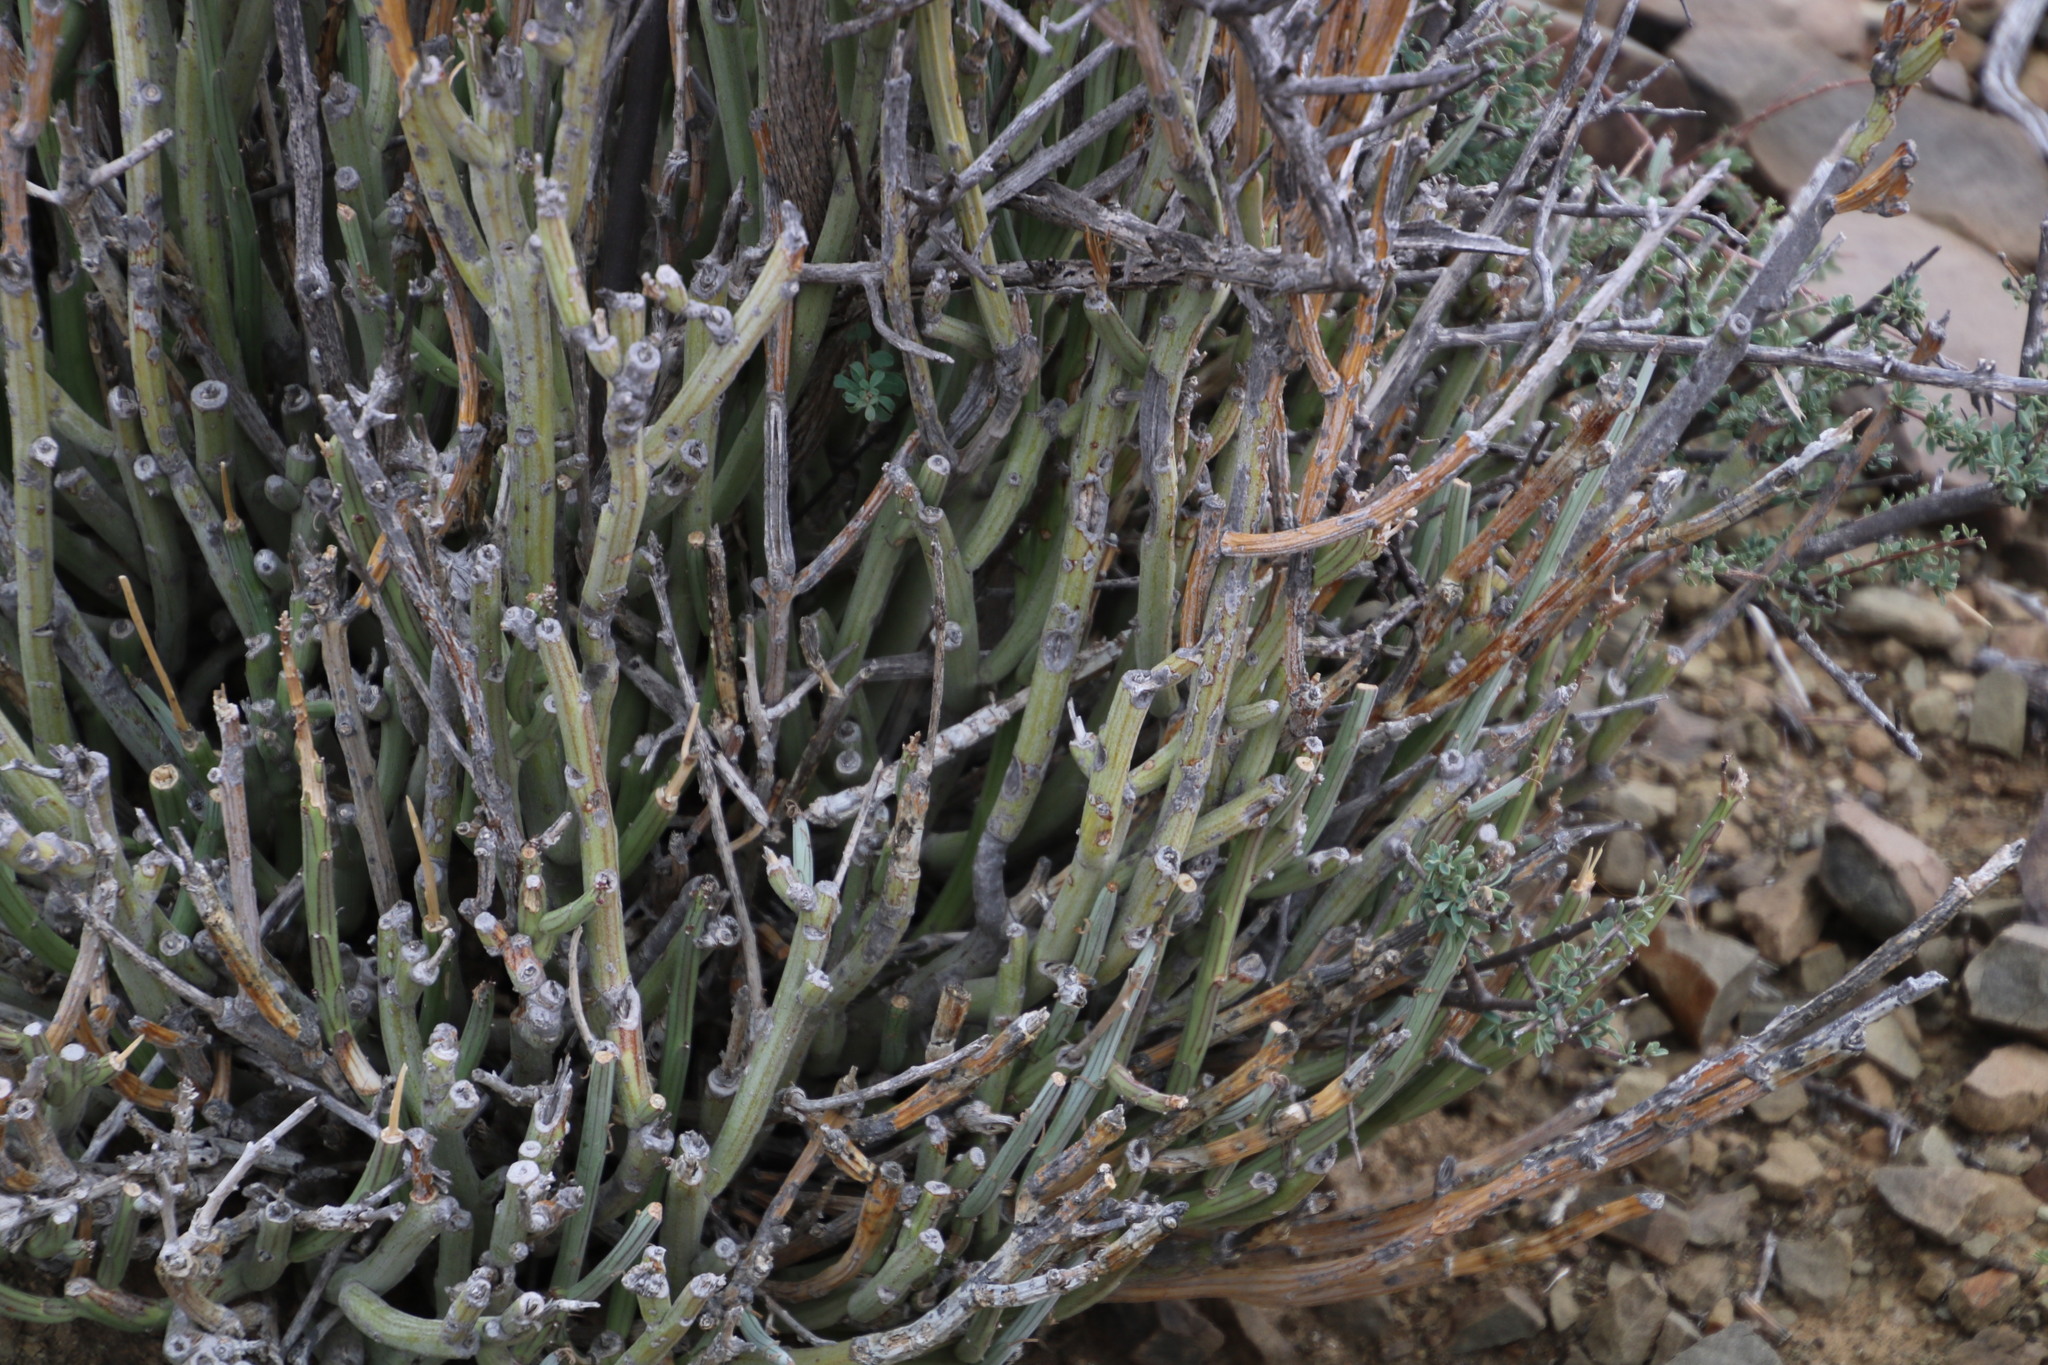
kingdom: Plantae
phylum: Tracheophyta
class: Magnoliopsida
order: Asterales
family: Asteraceae
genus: Curio
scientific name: Curio avasimontanus
